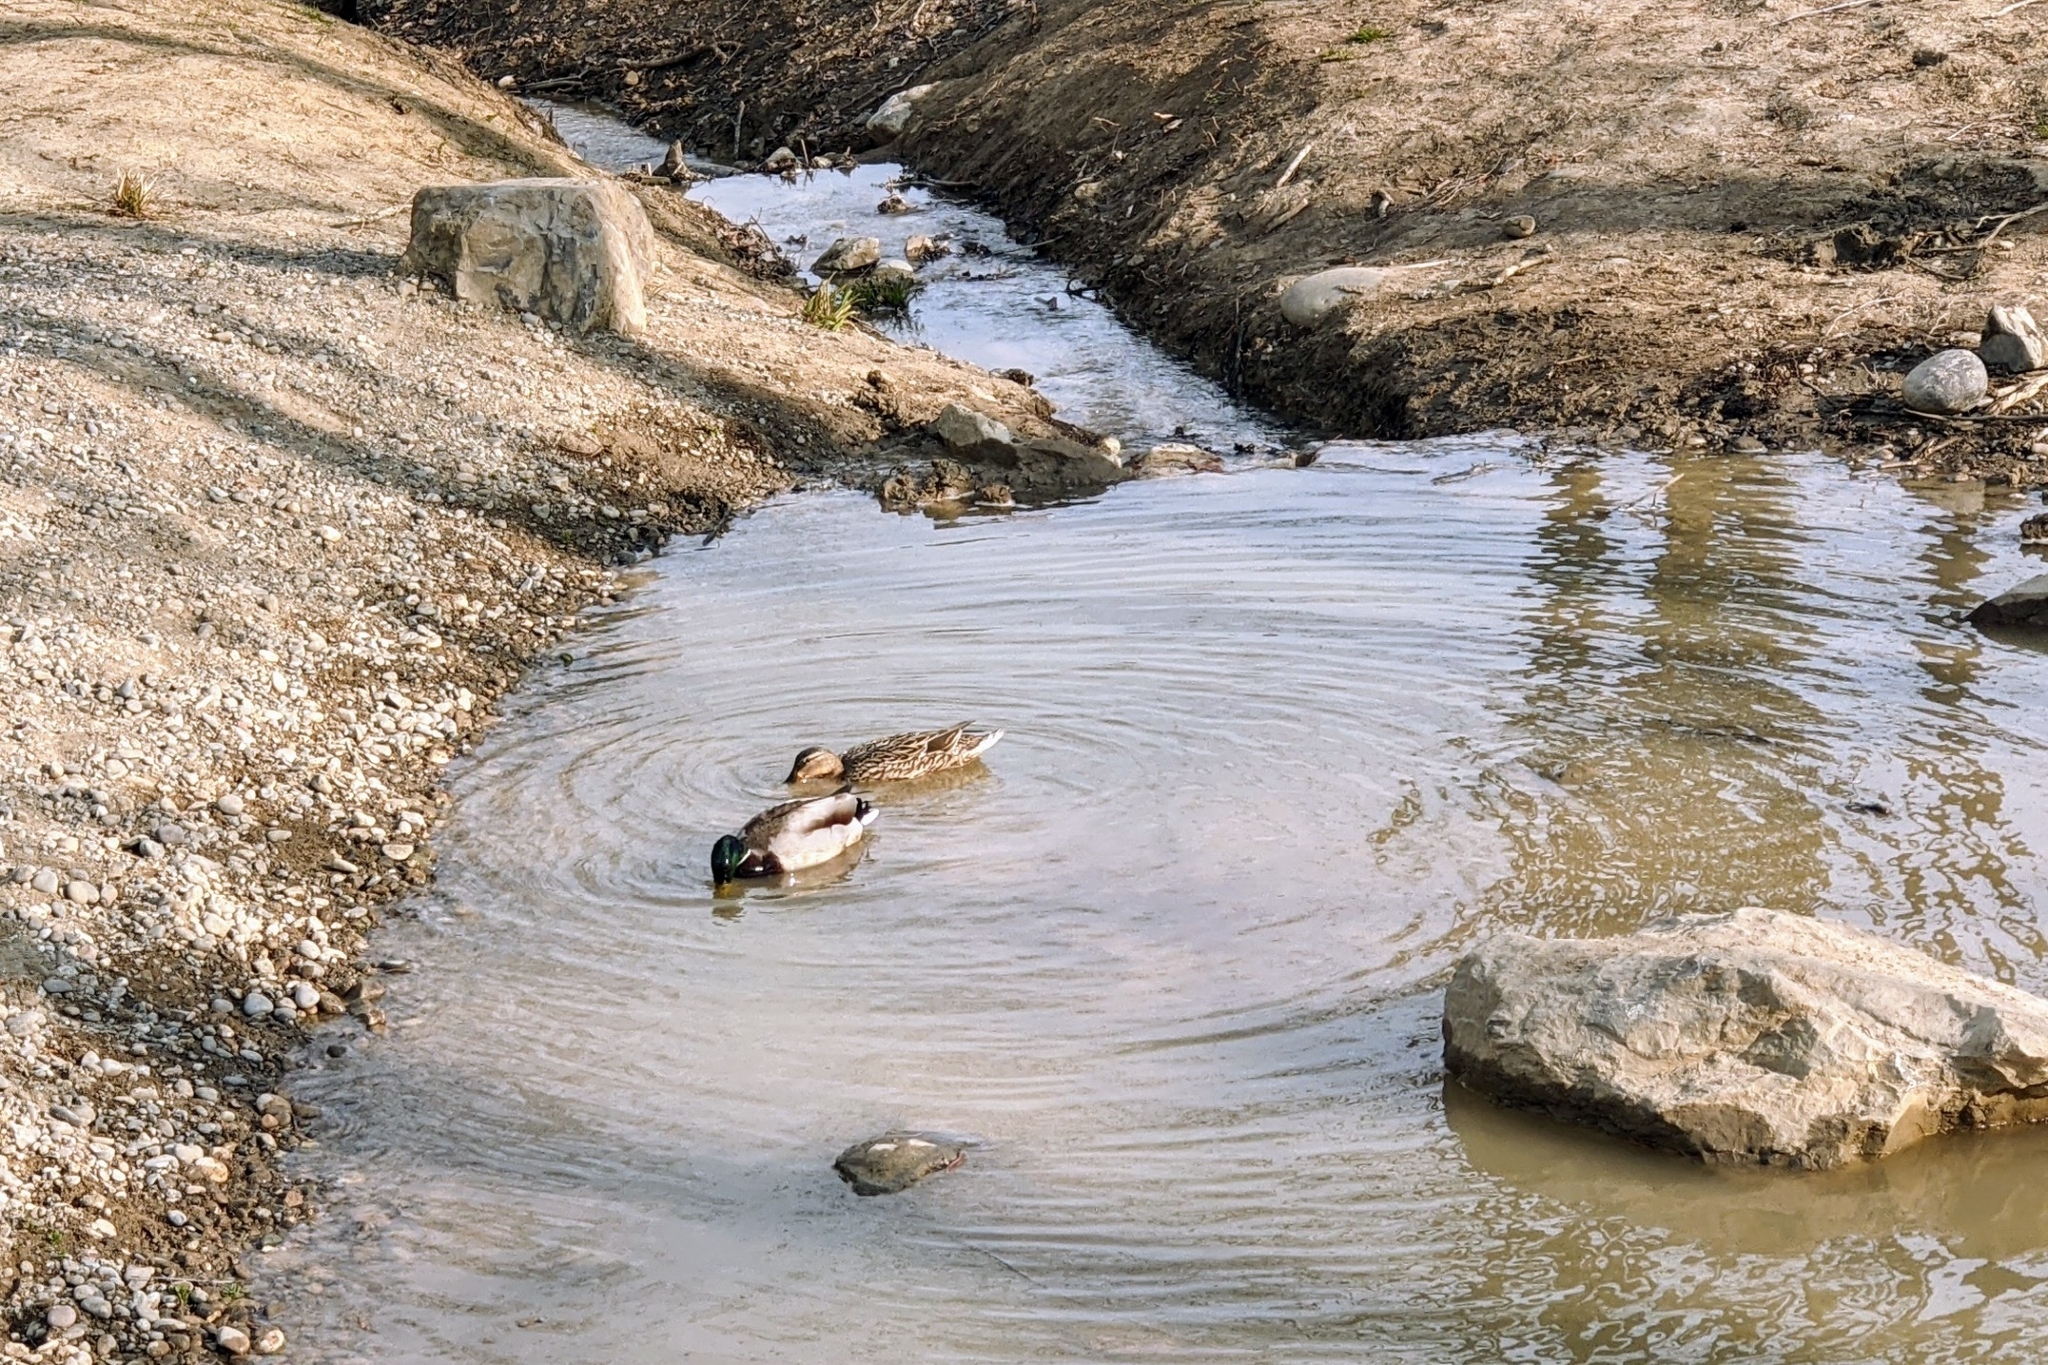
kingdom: Animalia
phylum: Chordata
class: Aves
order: Anseriformes
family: Anatidae
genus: Anas
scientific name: Anas platyrhynchos
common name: Mallard
